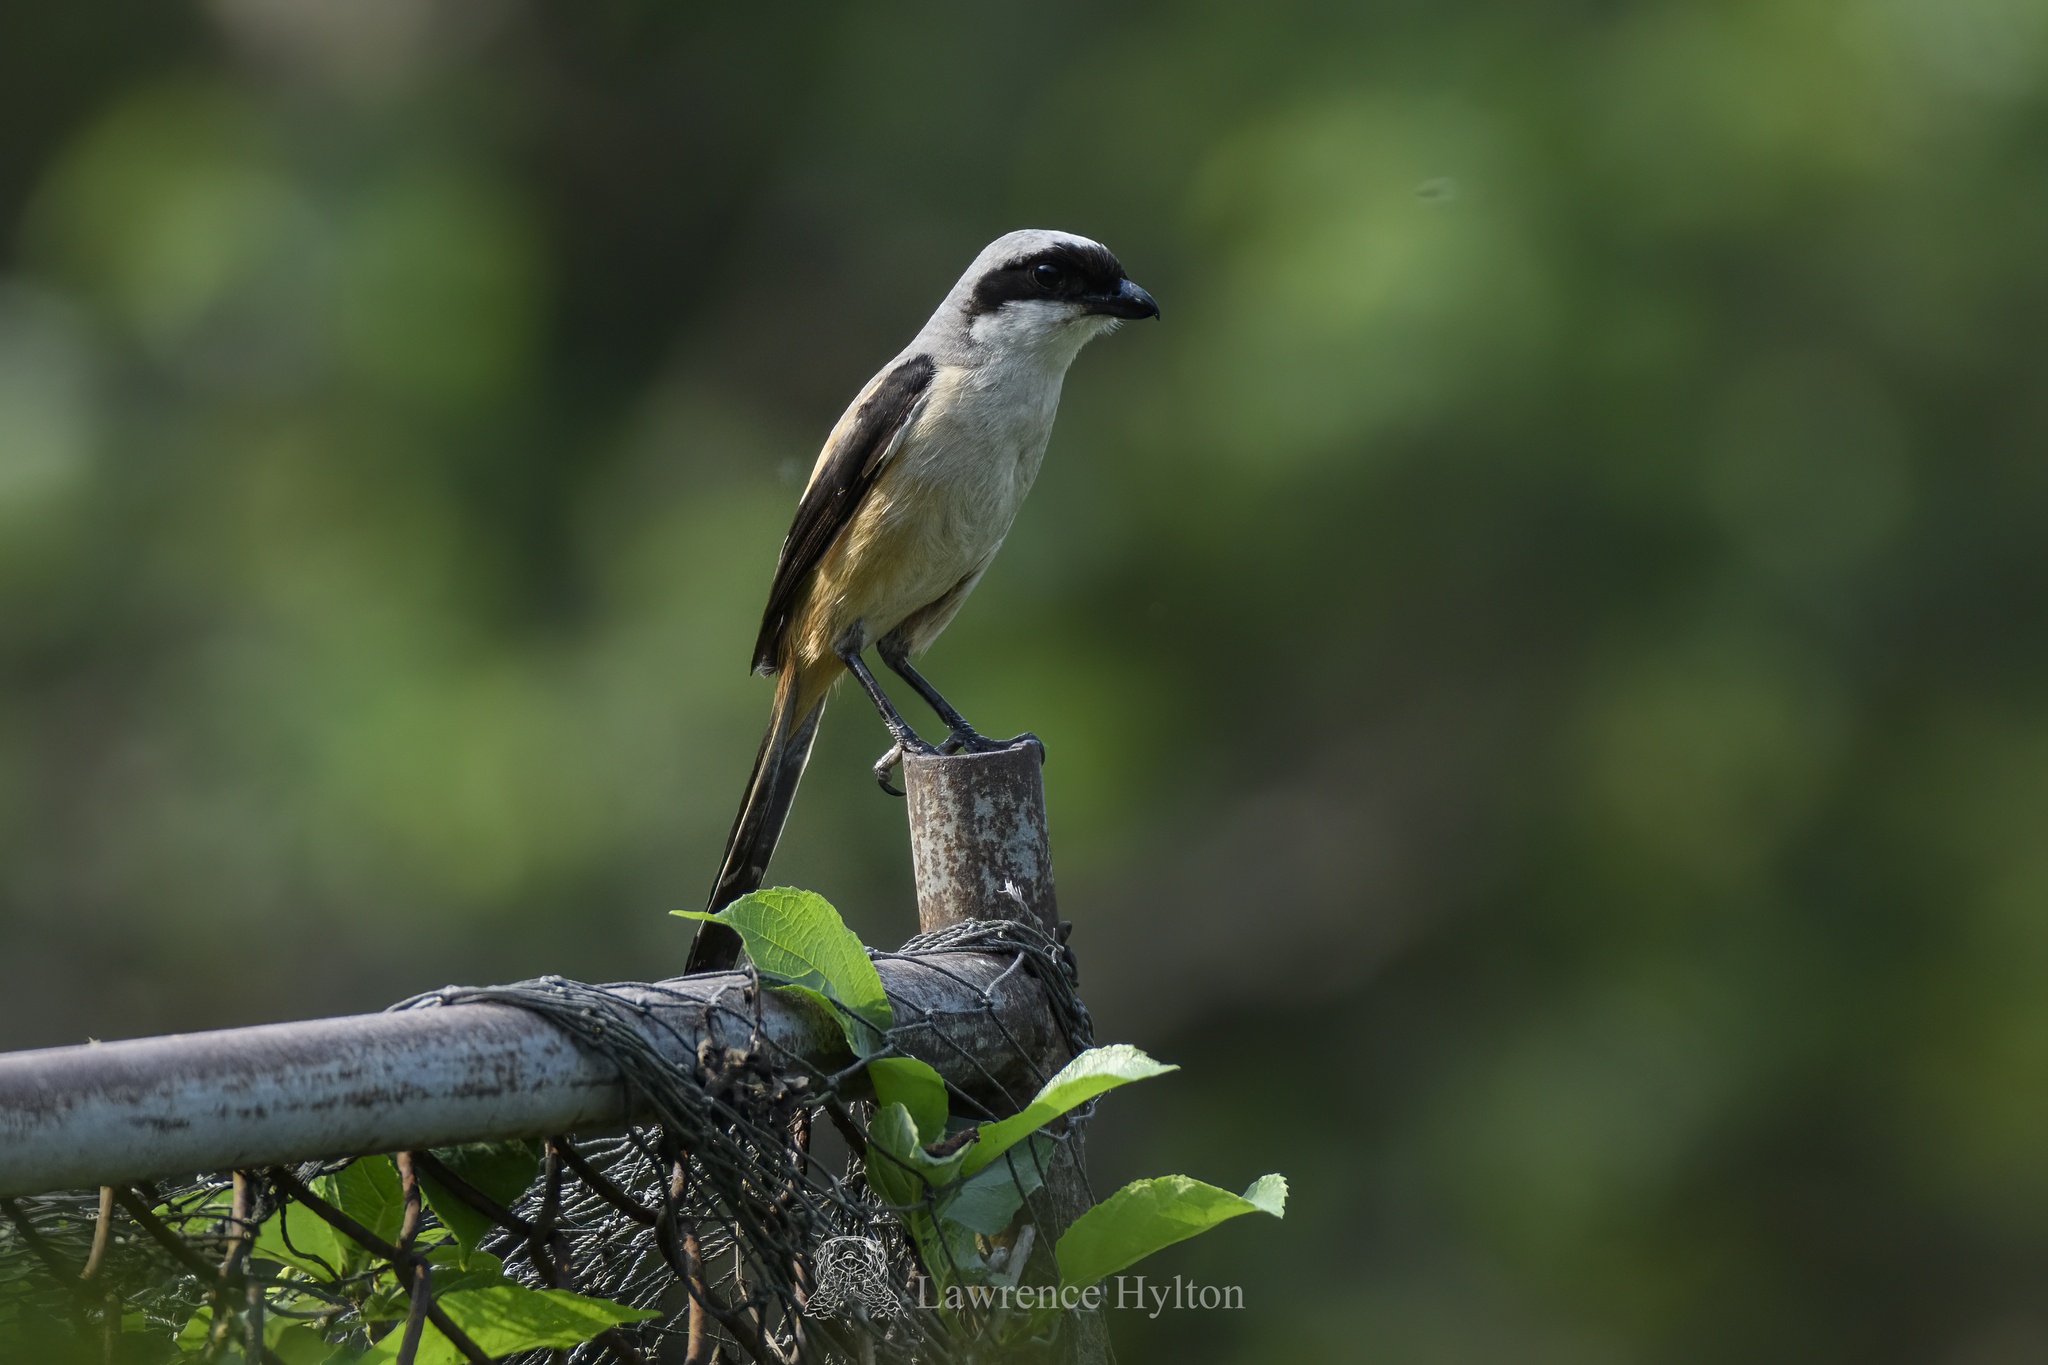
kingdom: Animalia
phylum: Chordata
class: Aves
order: Passeriformes
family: Laniidae
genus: Lanius
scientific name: Lanius schach
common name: Long-tailed shrike
